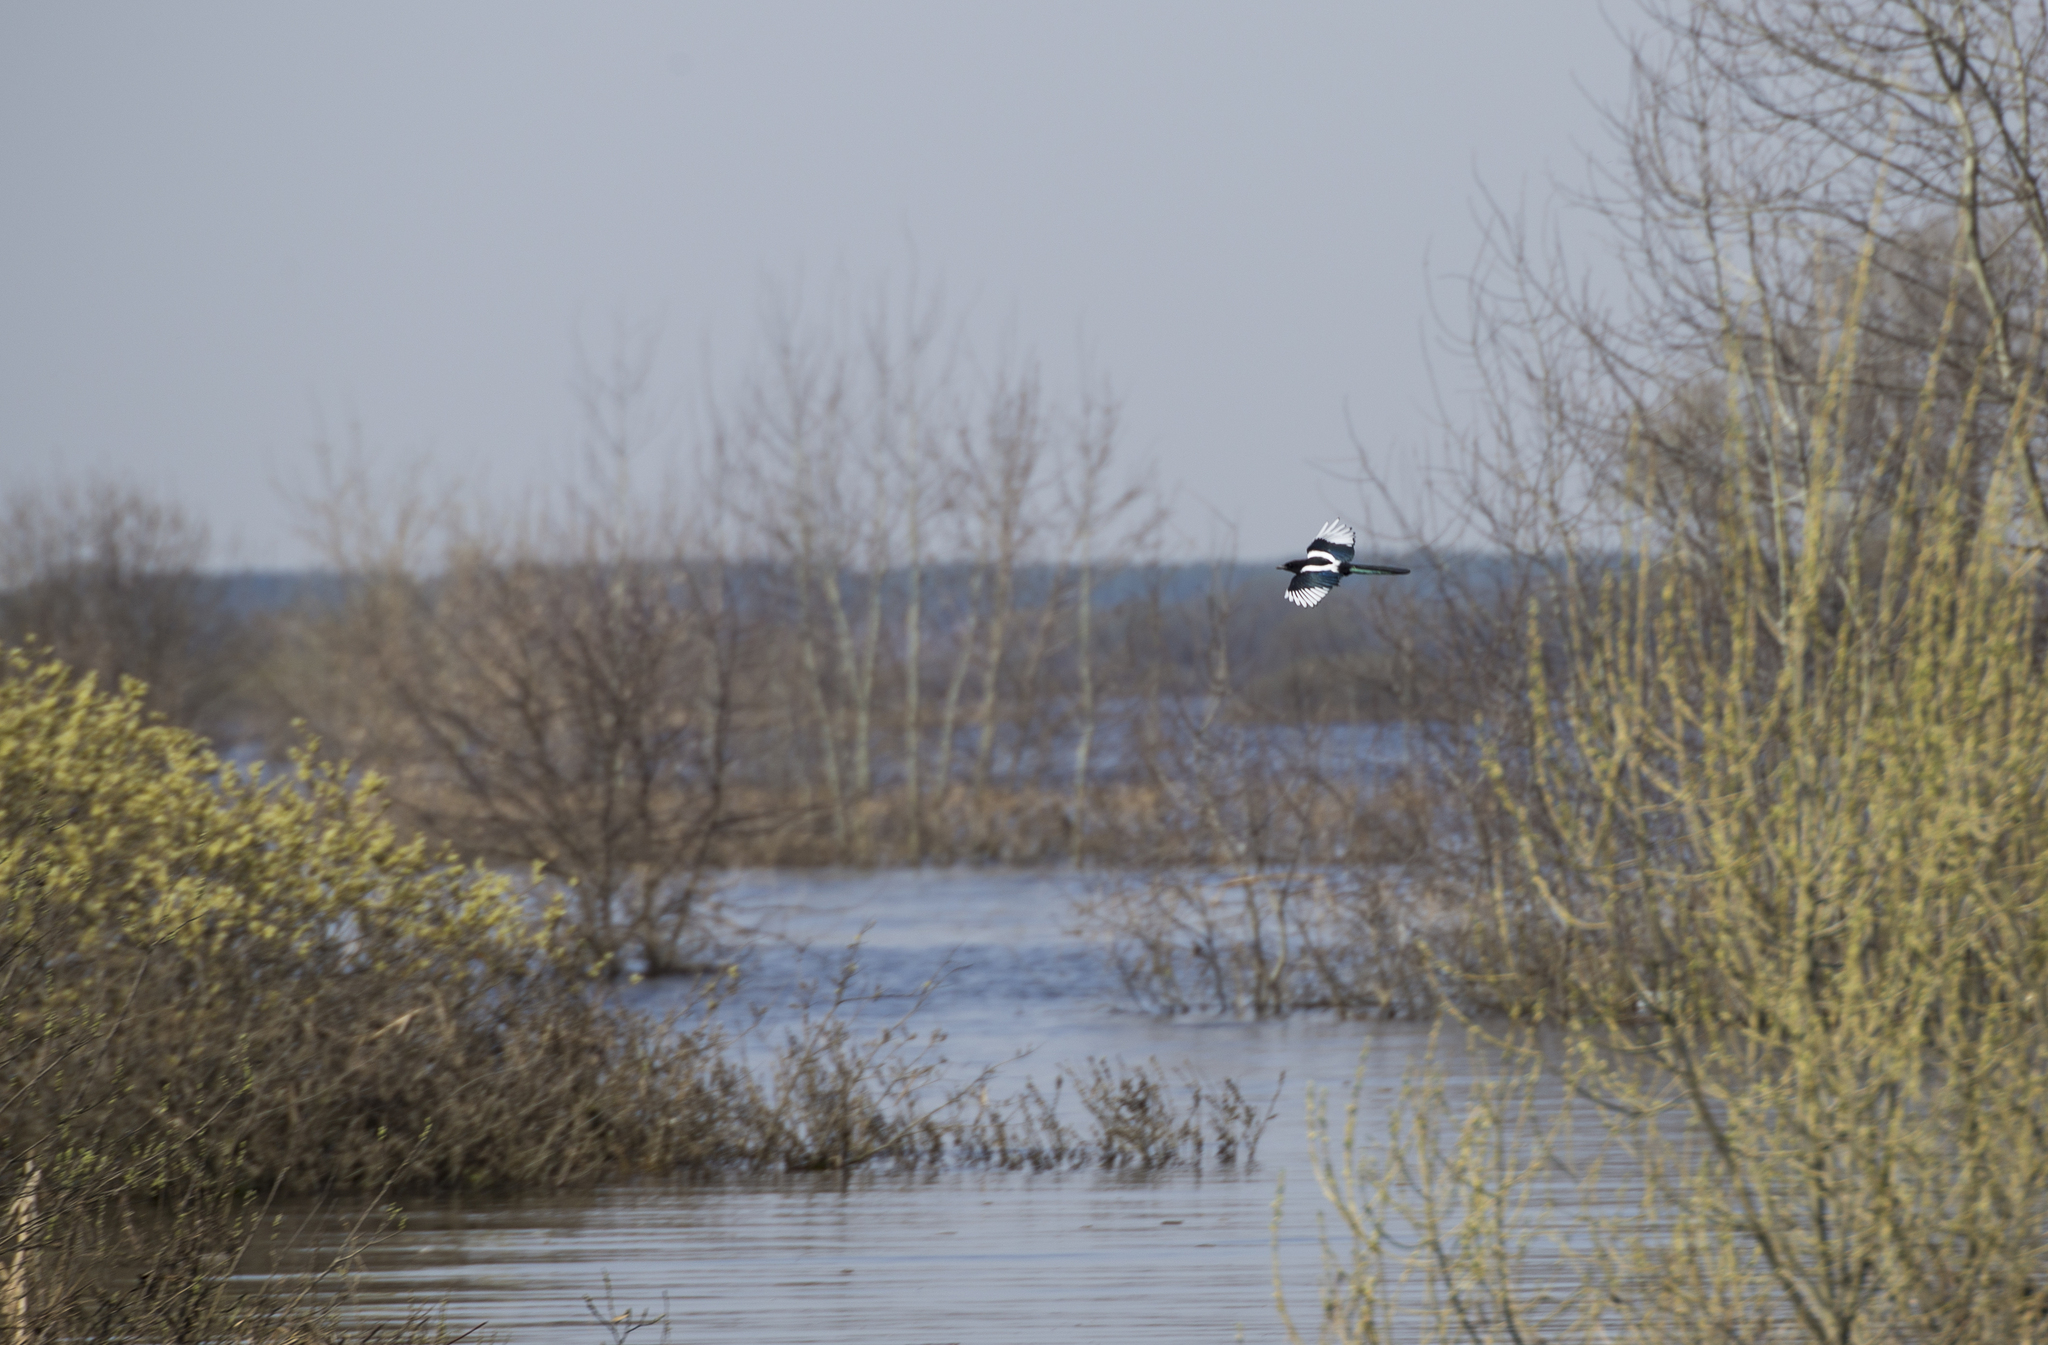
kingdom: Animalia
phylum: Chordata
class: Aves
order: Passeriformes
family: Corvidae
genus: Pica
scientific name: Pica pica
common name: Eurasian magpie
